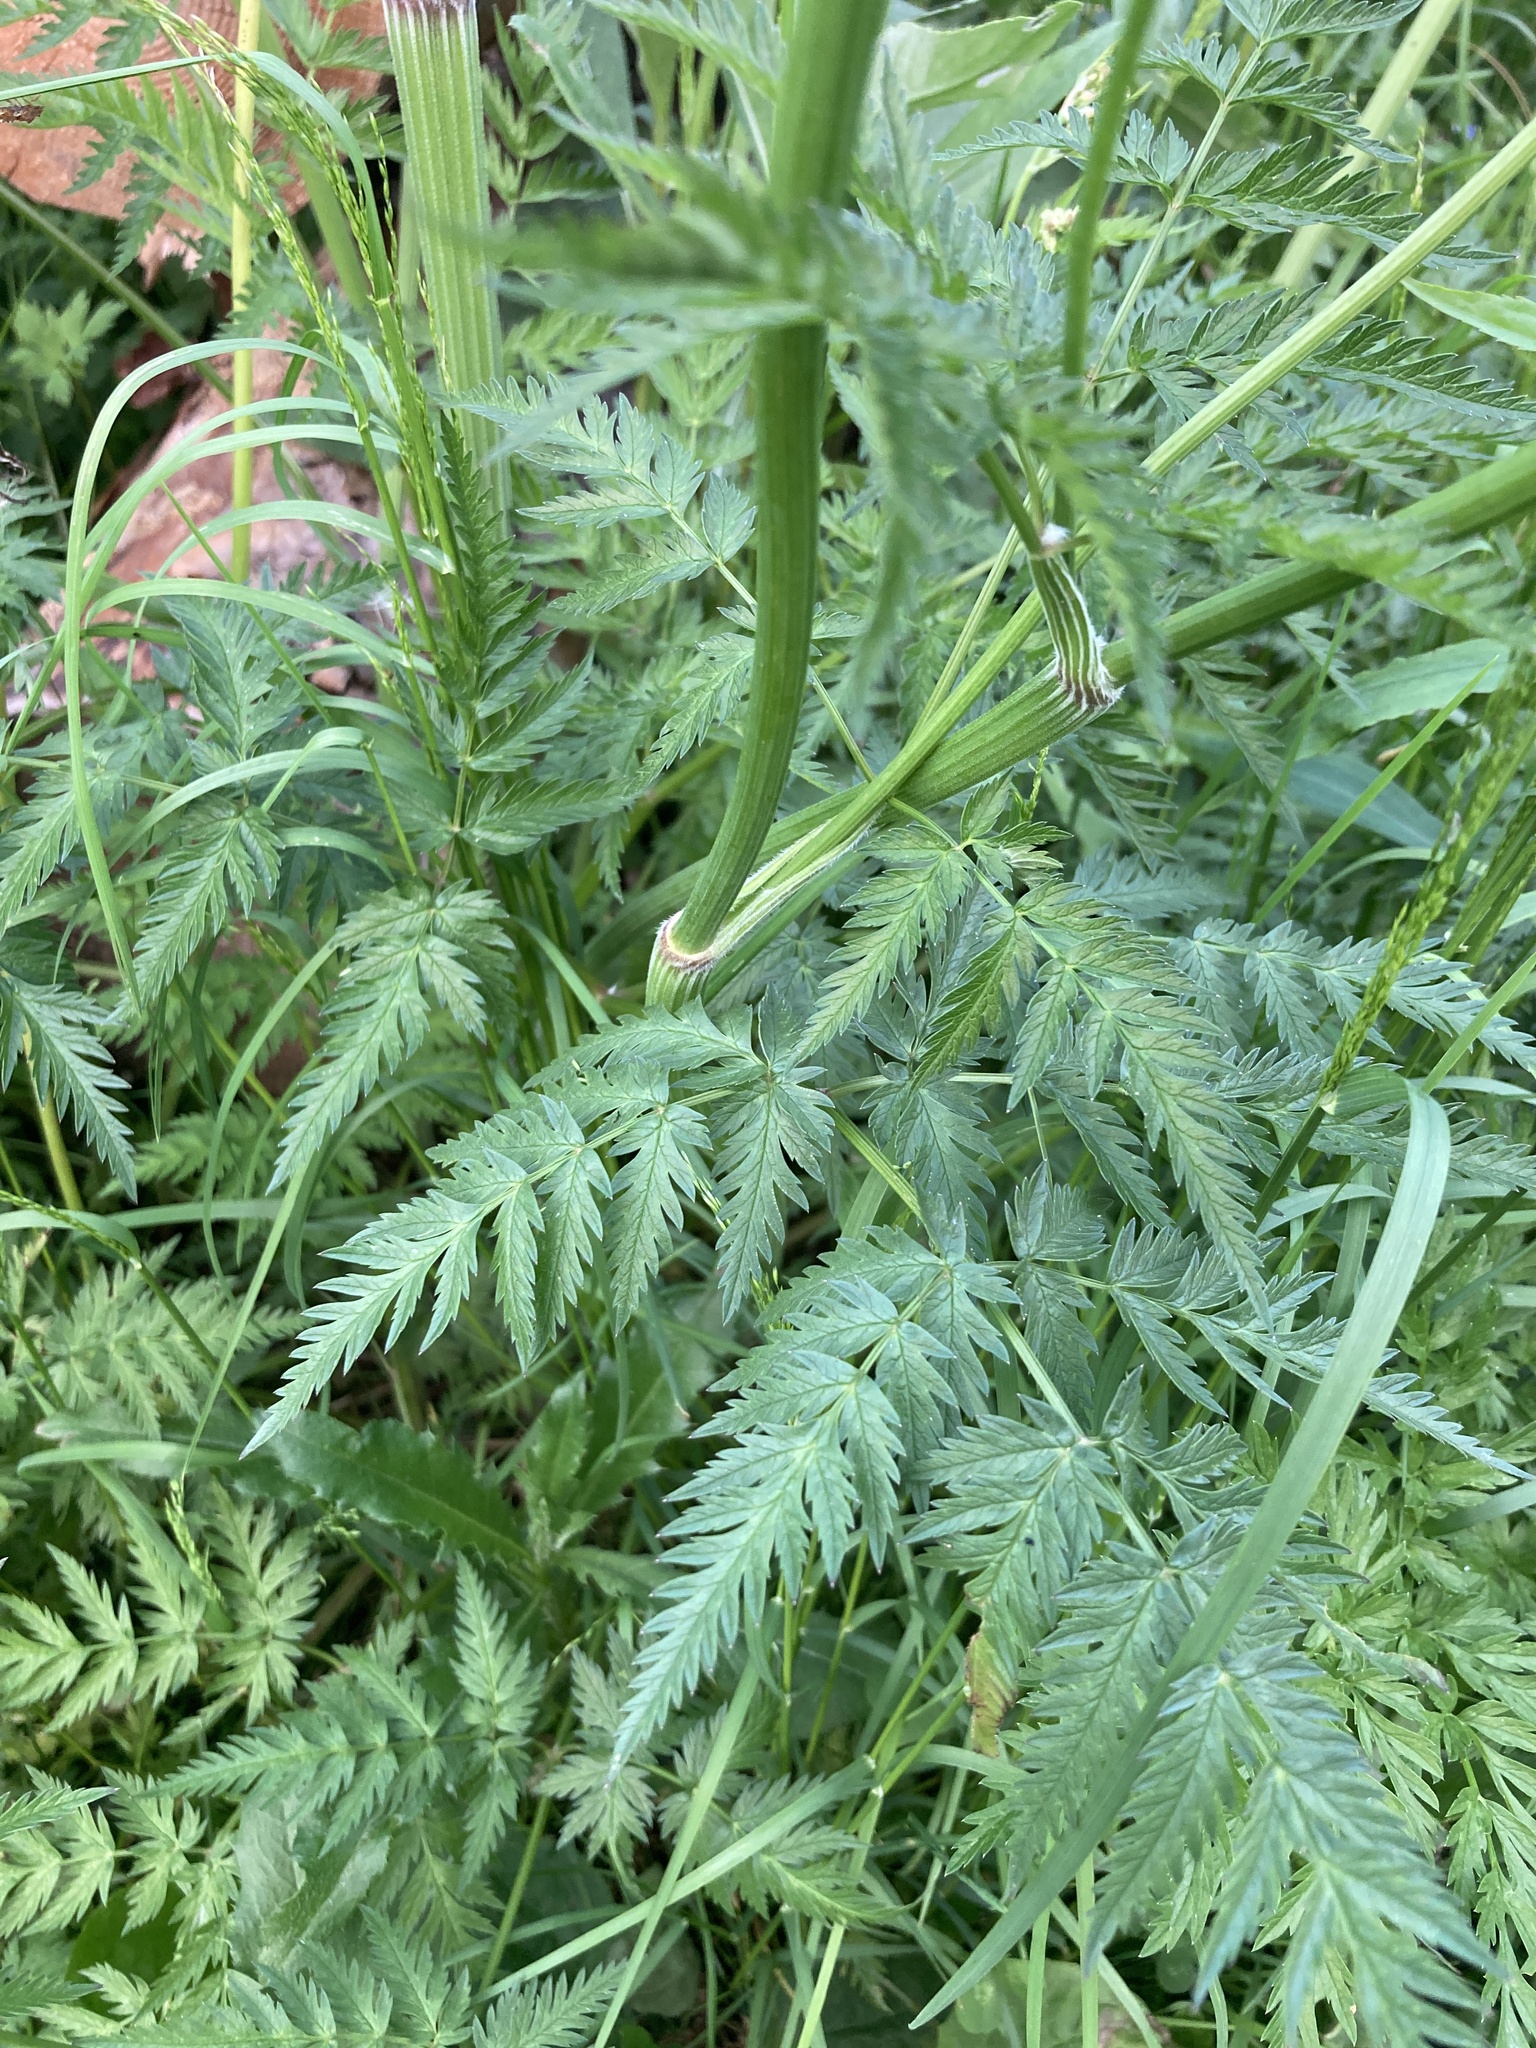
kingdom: Plantae
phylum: Tracheophyta
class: Magnoliopsida
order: Apiales
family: Apiaceae
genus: Anthriscus
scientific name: Anthriscus sylvestris
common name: Cow parsley
